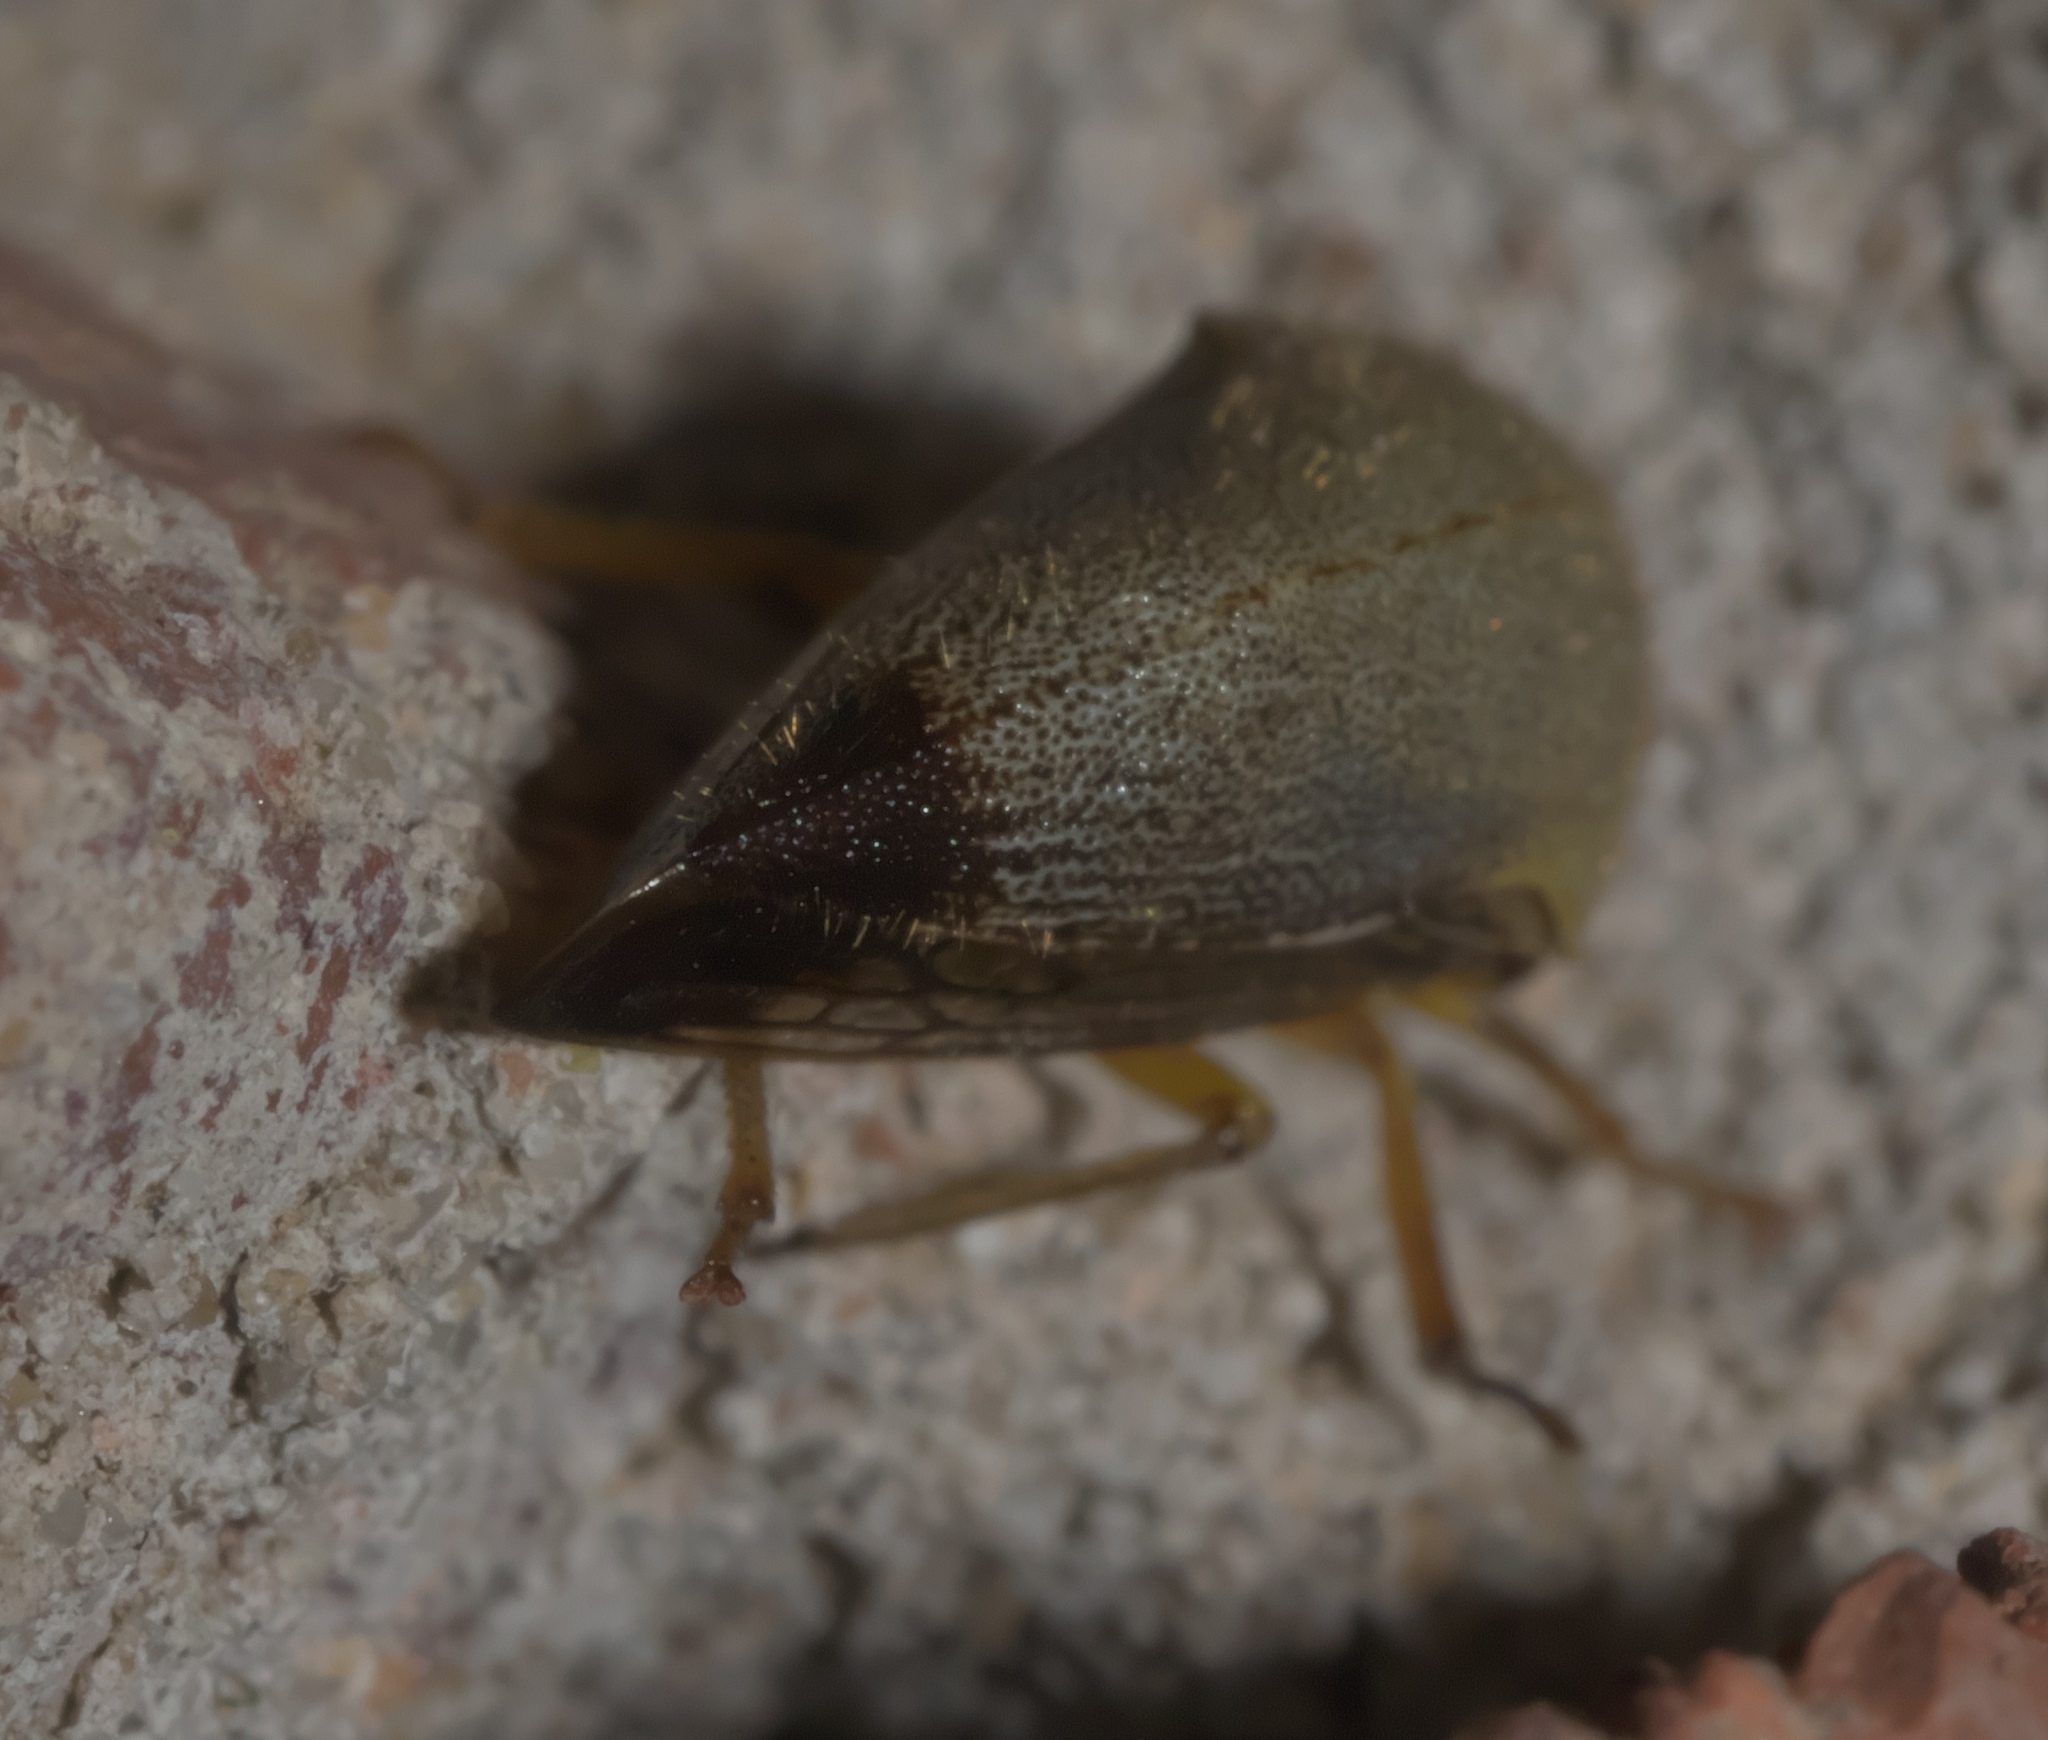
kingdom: Animalia
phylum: Arthropoda
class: Insecta
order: Hemiptera
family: Membracidae
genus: Carynota
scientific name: Carynota mera
